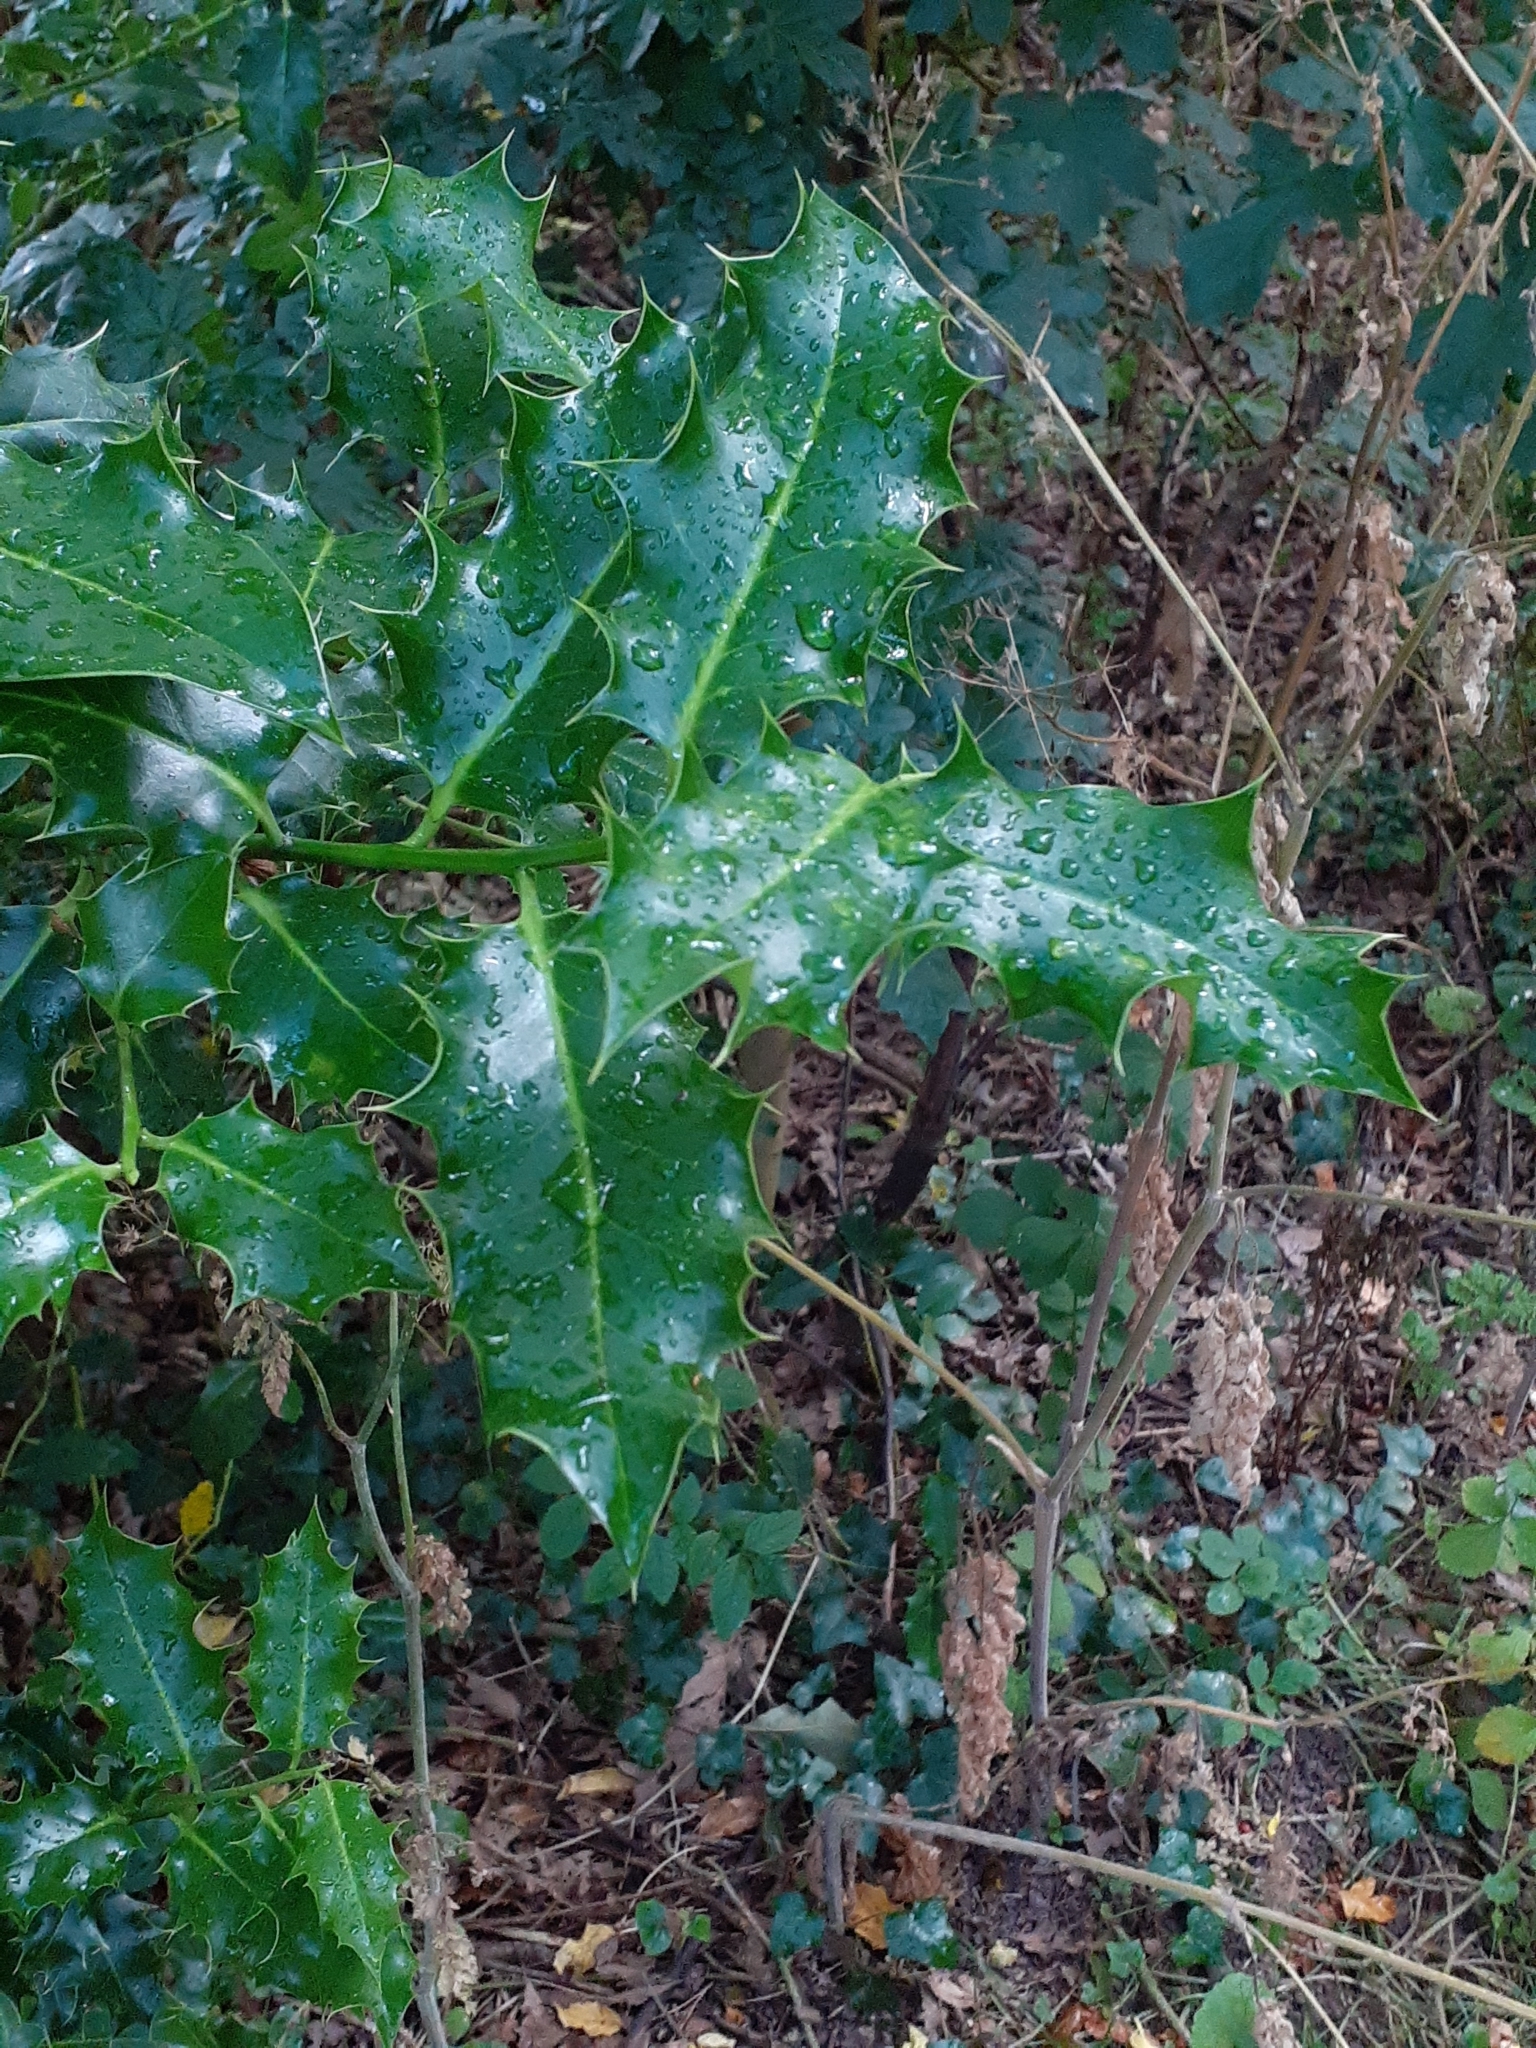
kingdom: Plantae
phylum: Tracheophyta
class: Magnoliopsida
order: Aquifoliales
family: Aquifoliaceae
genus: Ilex
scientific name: Ilex aquifolium
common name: English holly
